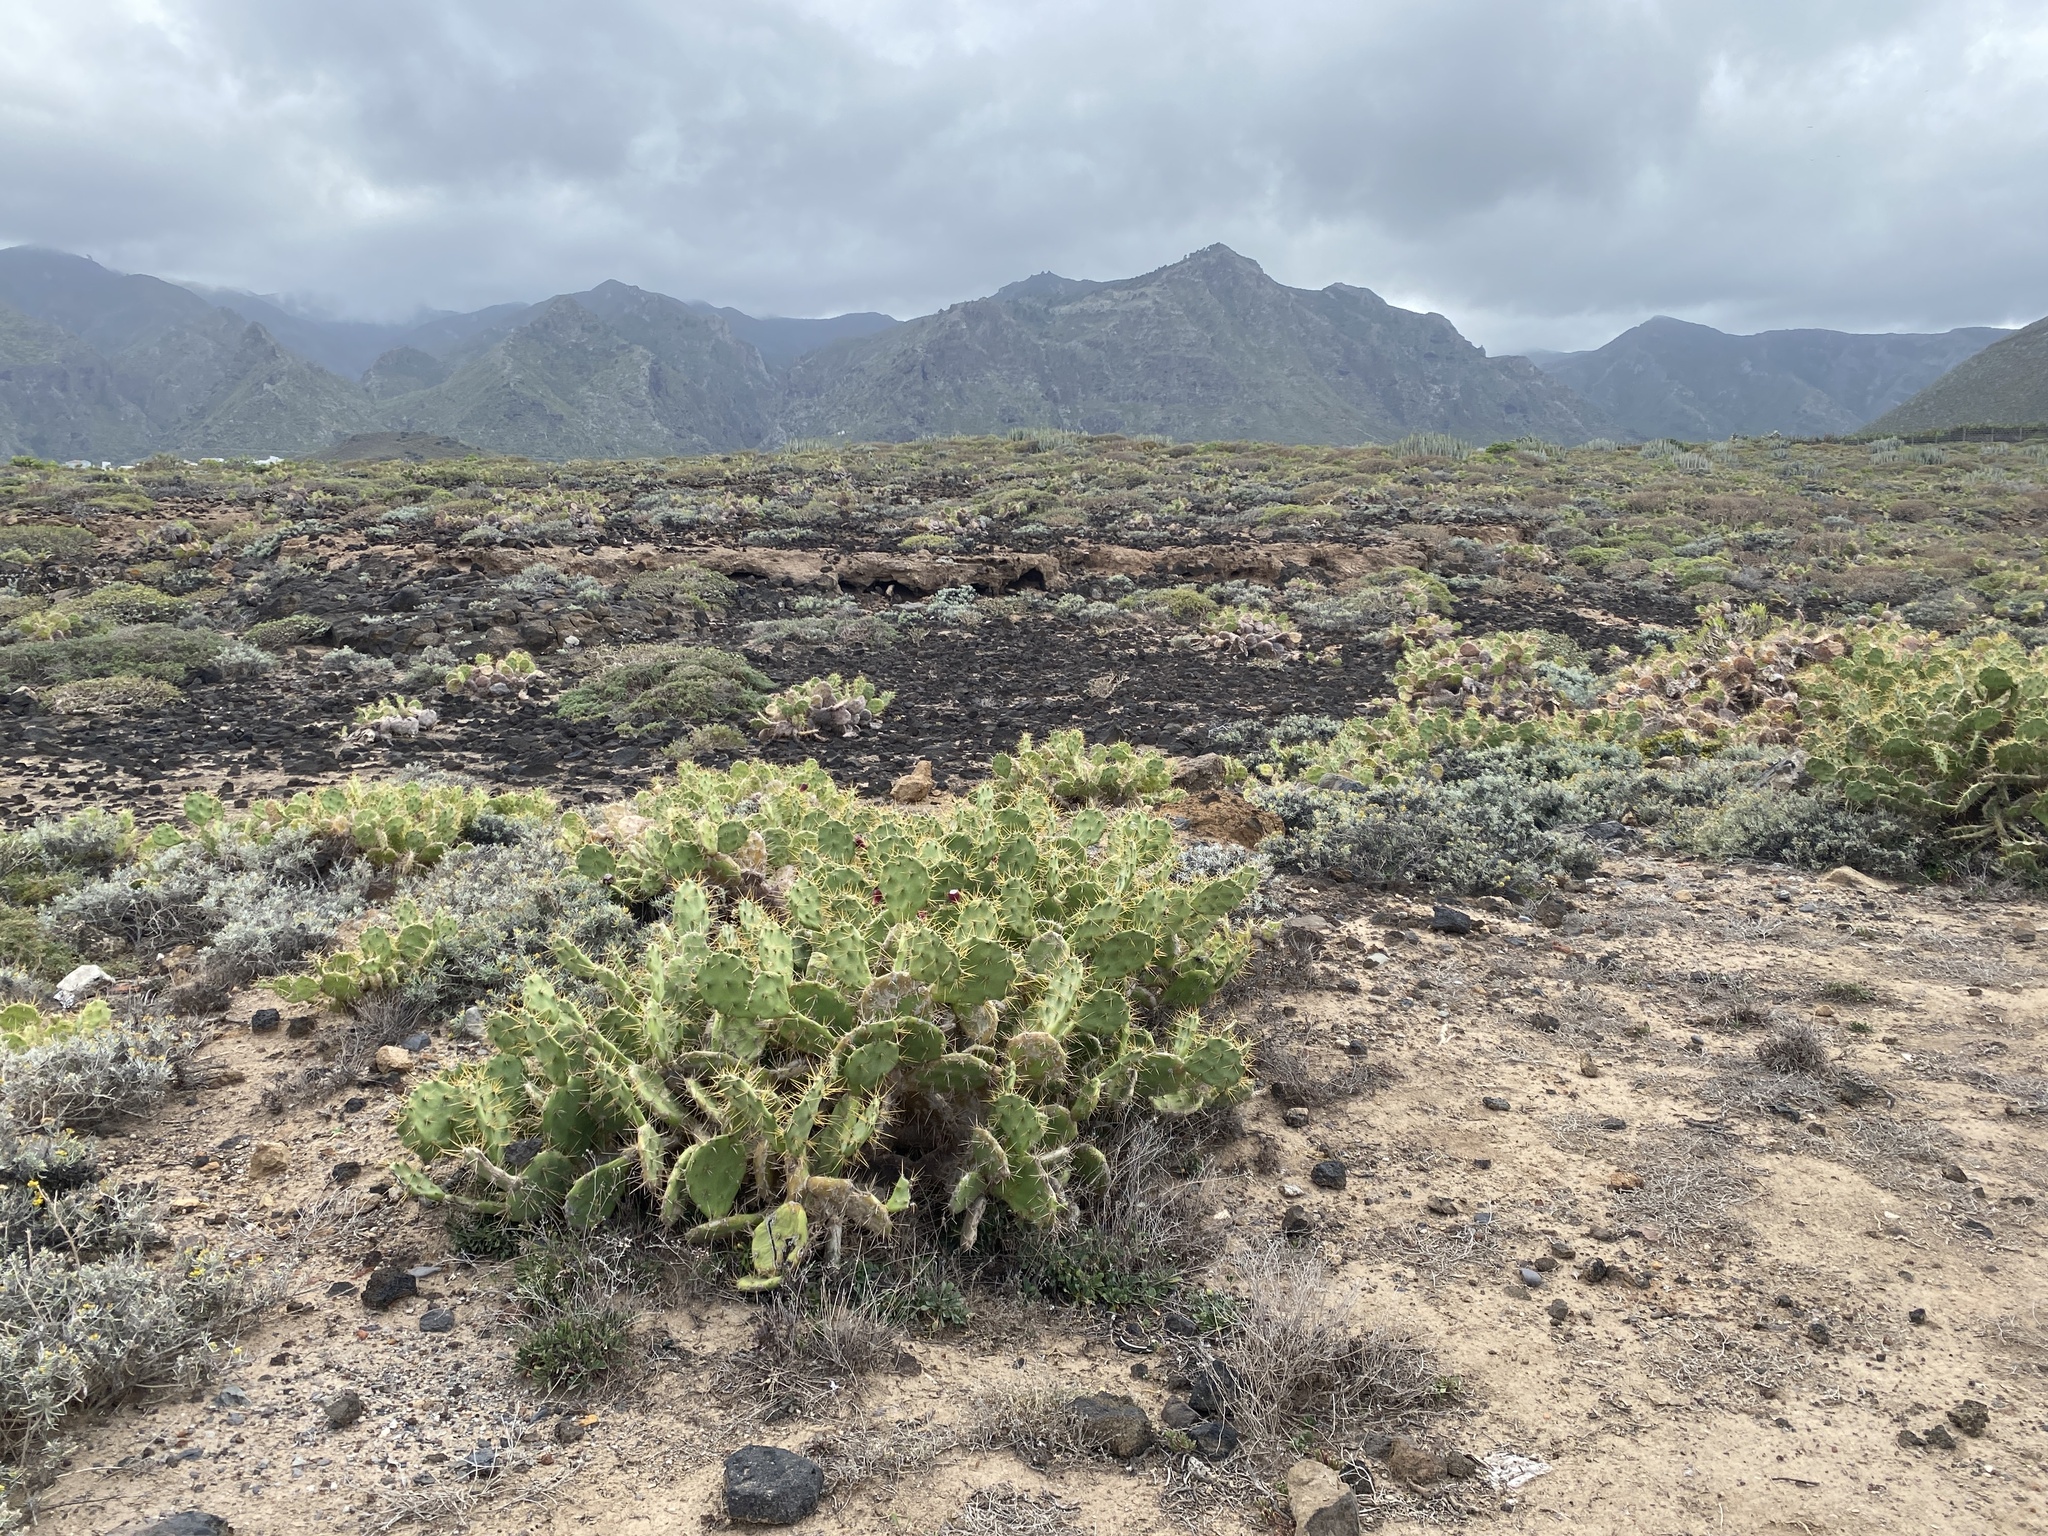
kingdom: Plantae
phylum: Tracheophyta
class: Magnoliopsida
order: Caryophyllales
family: Cactaceae
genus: Opuntia
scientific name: Opuntia stricta
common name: Erect pricklypear
